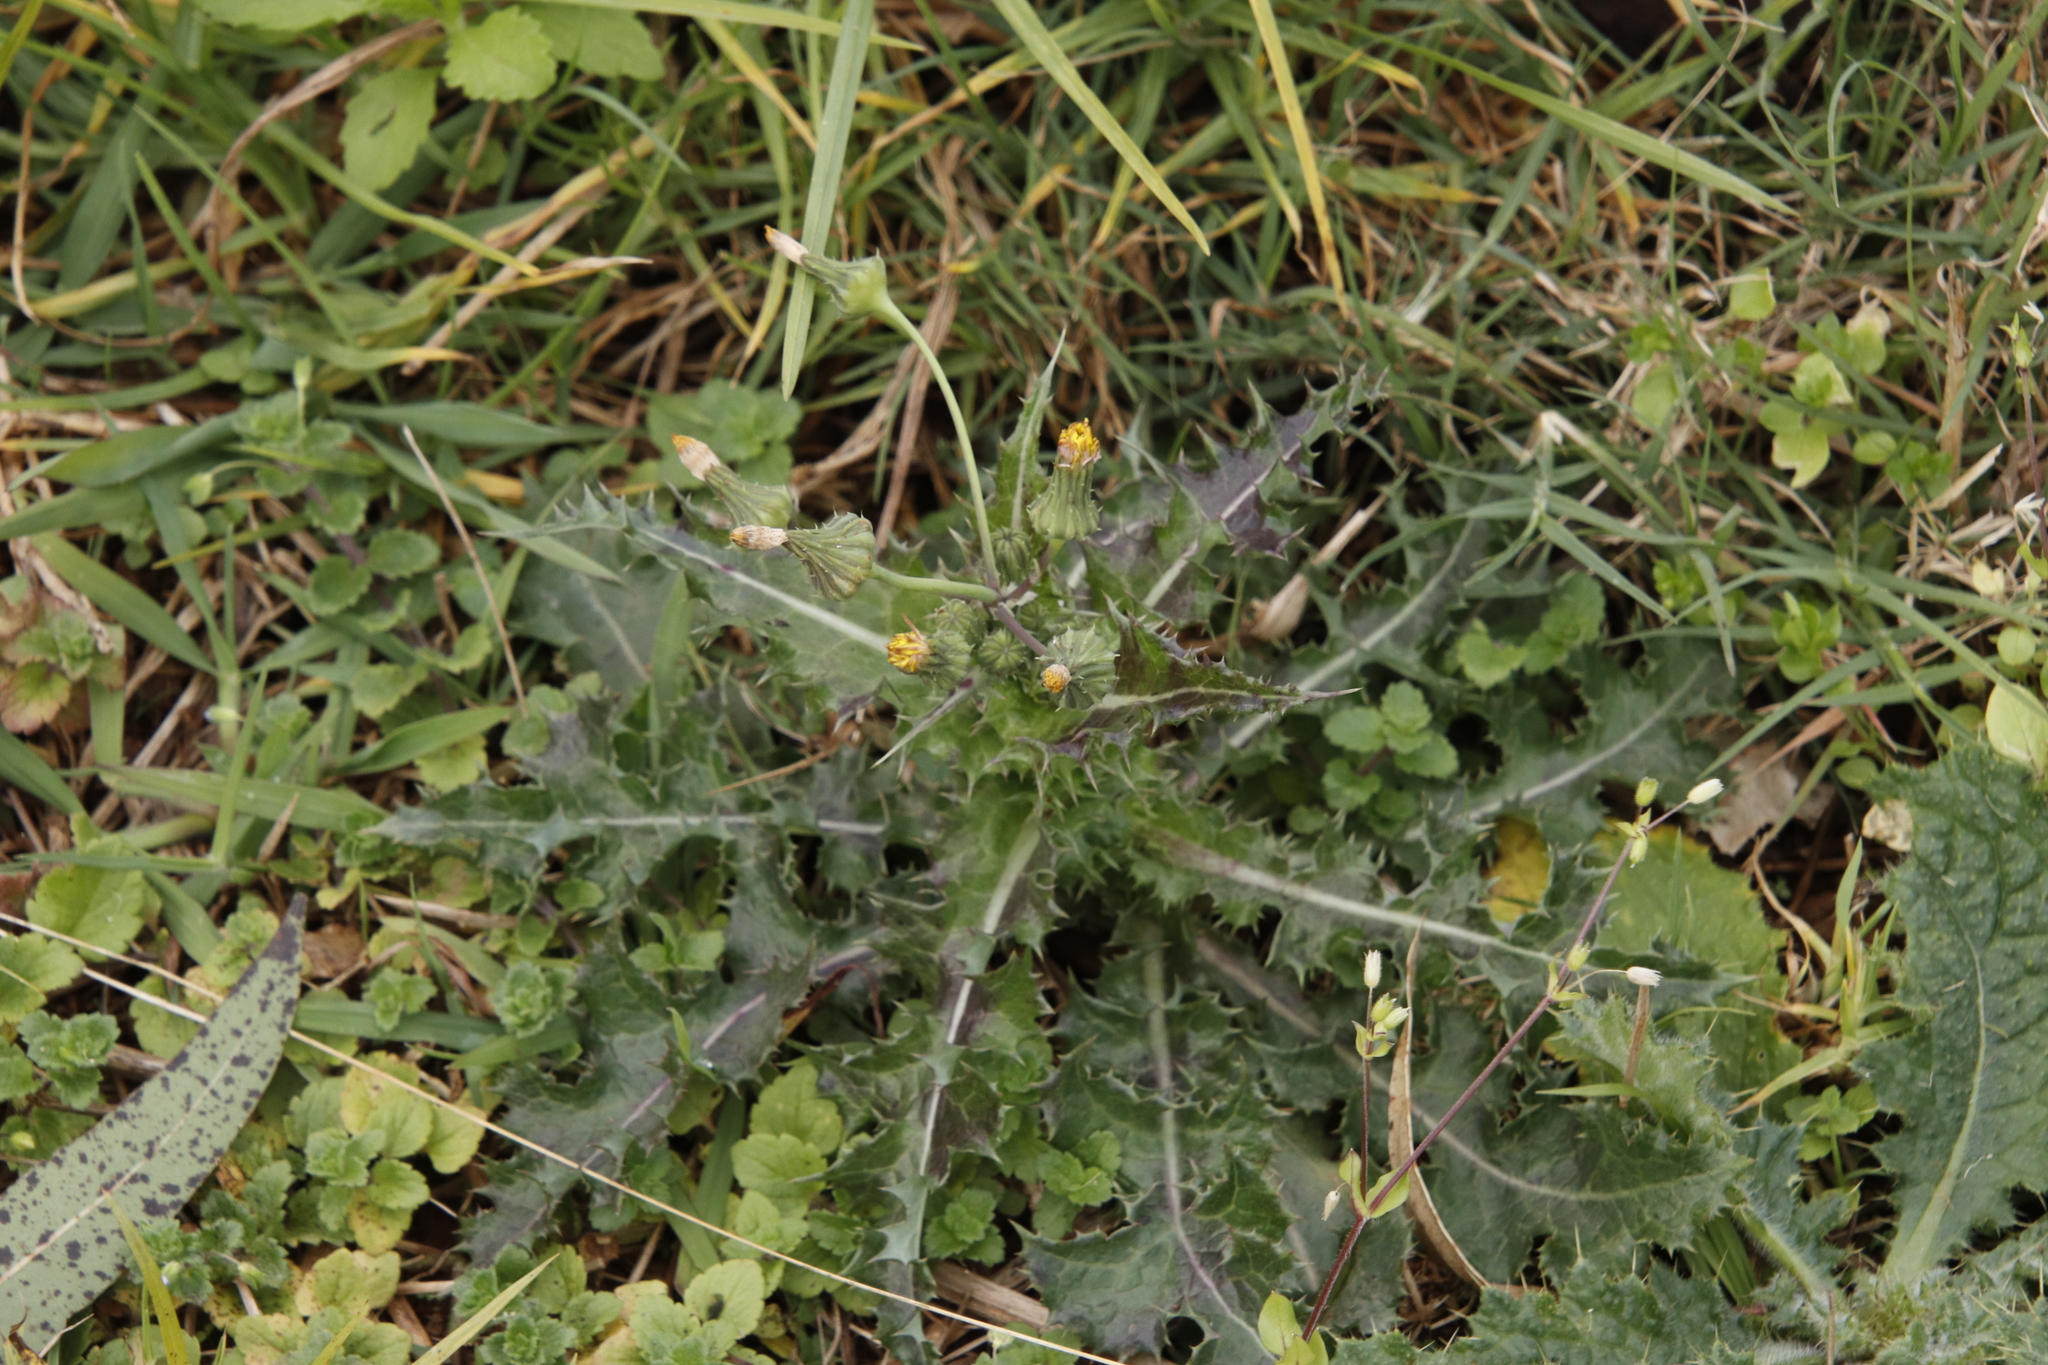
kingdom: Plantae
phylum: Tracheophyta
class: Magnoliopsida
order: Asterales
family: Asteraceae
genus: Sonchus
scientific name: Sonchus asper
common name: Prickly sow-thistle
